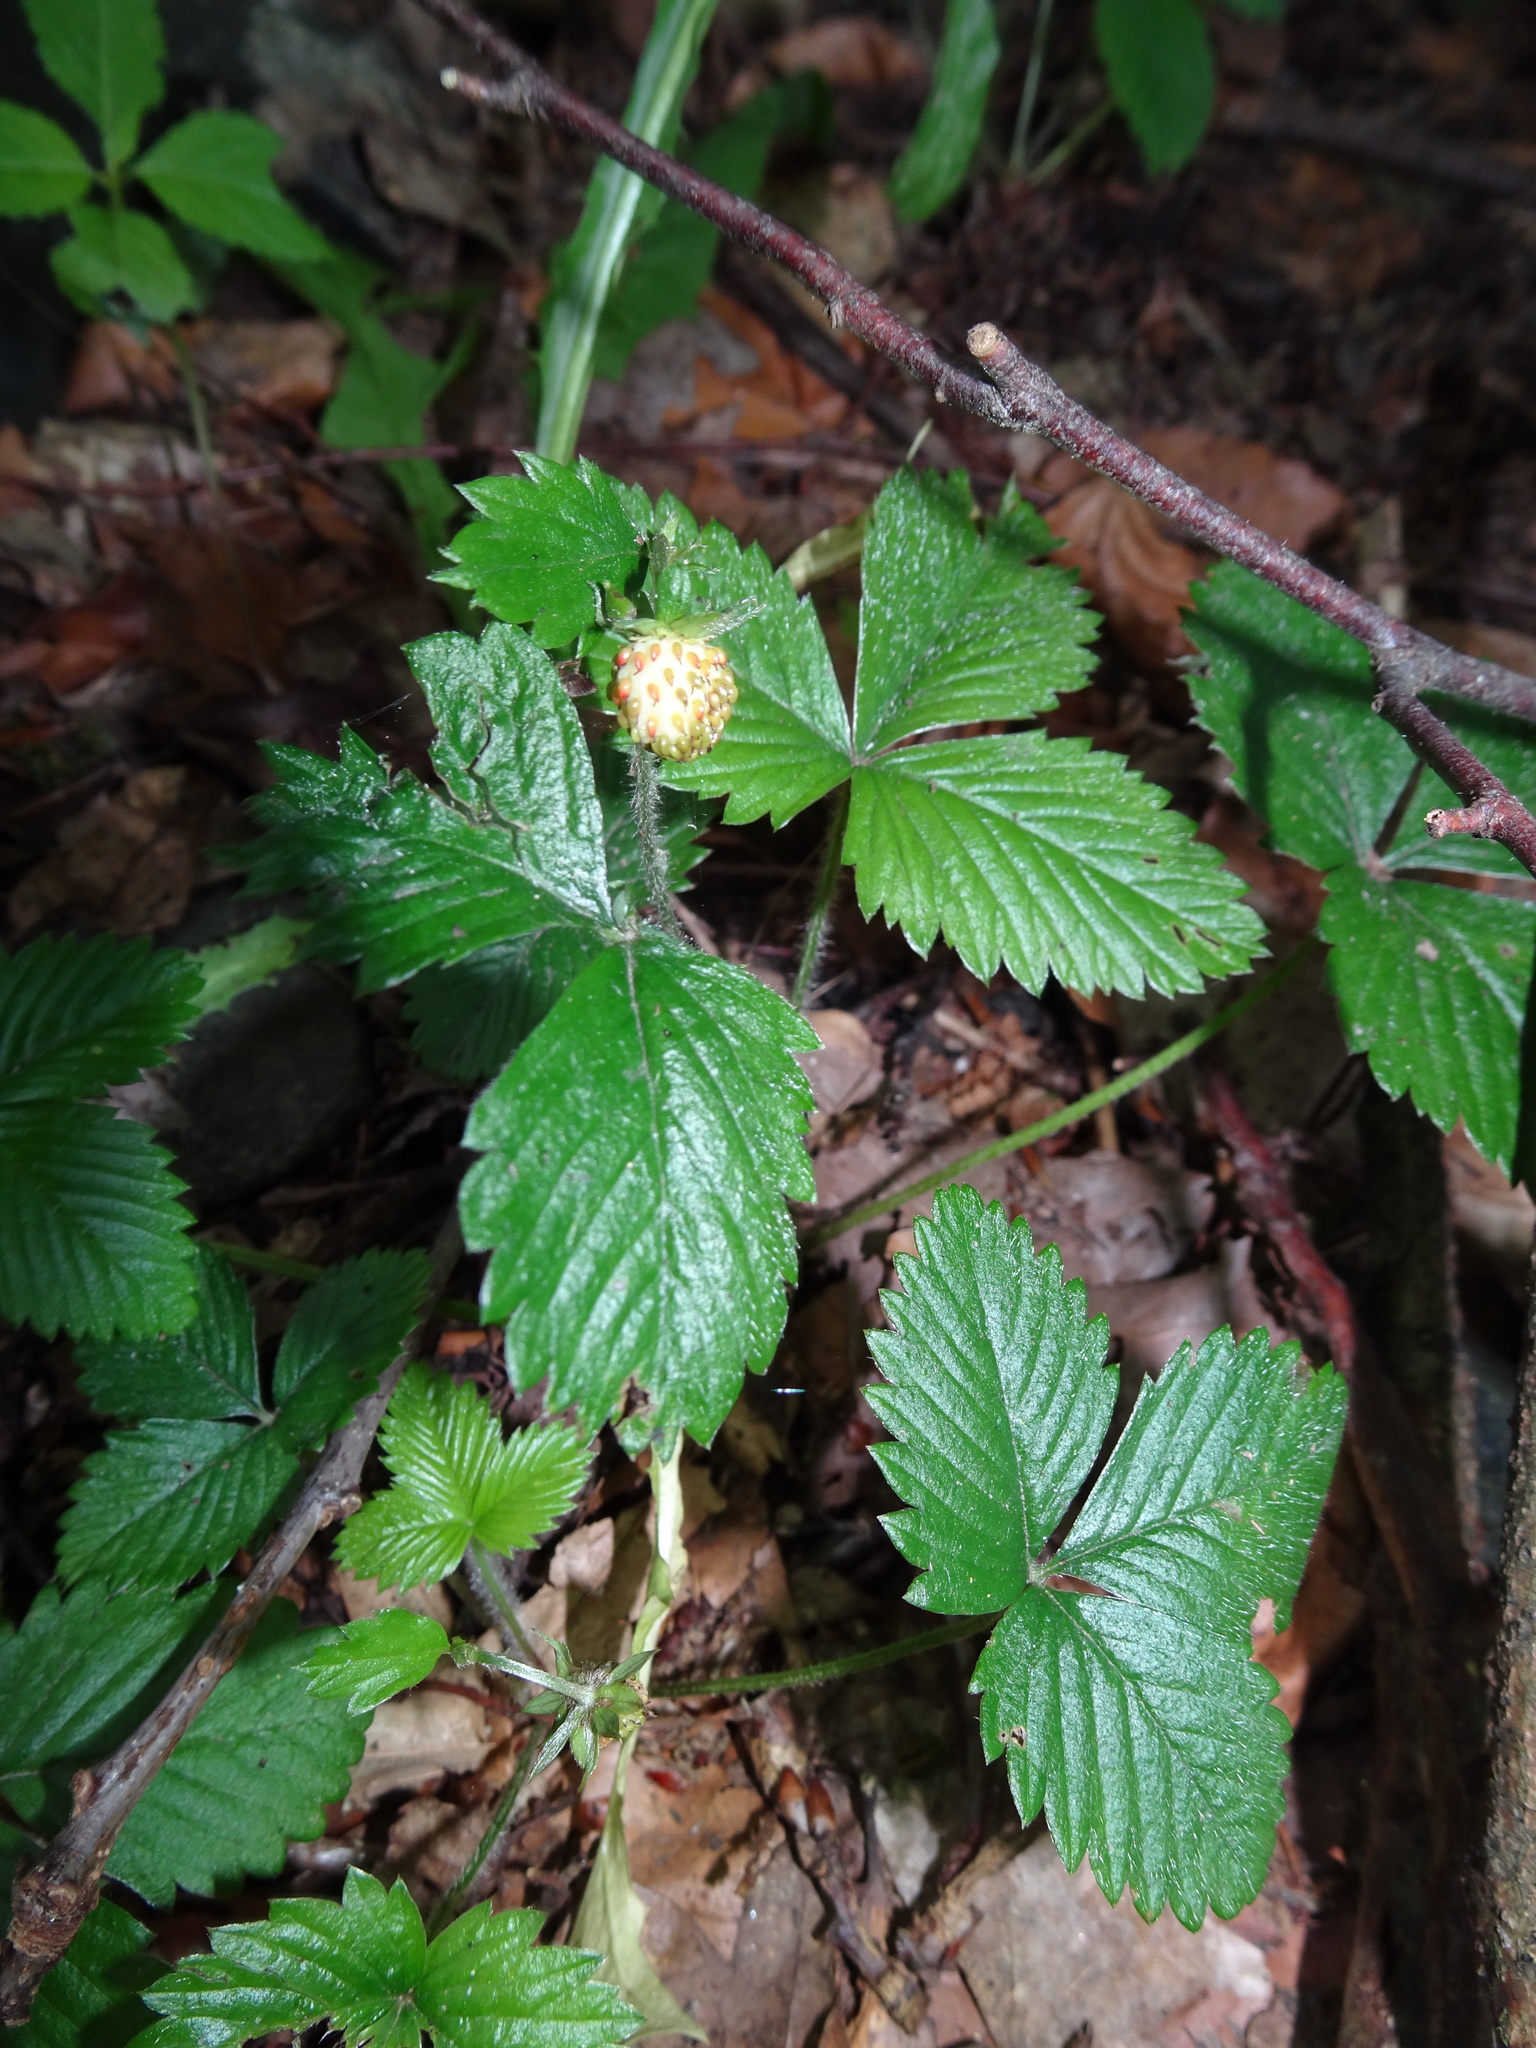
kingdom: Plantae
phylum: Tracheophyta
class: Magnoliopsida
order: Rosales
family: Rosaceae
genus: Fragaria
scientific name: Fragaria vesca
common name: Wild strawberry
